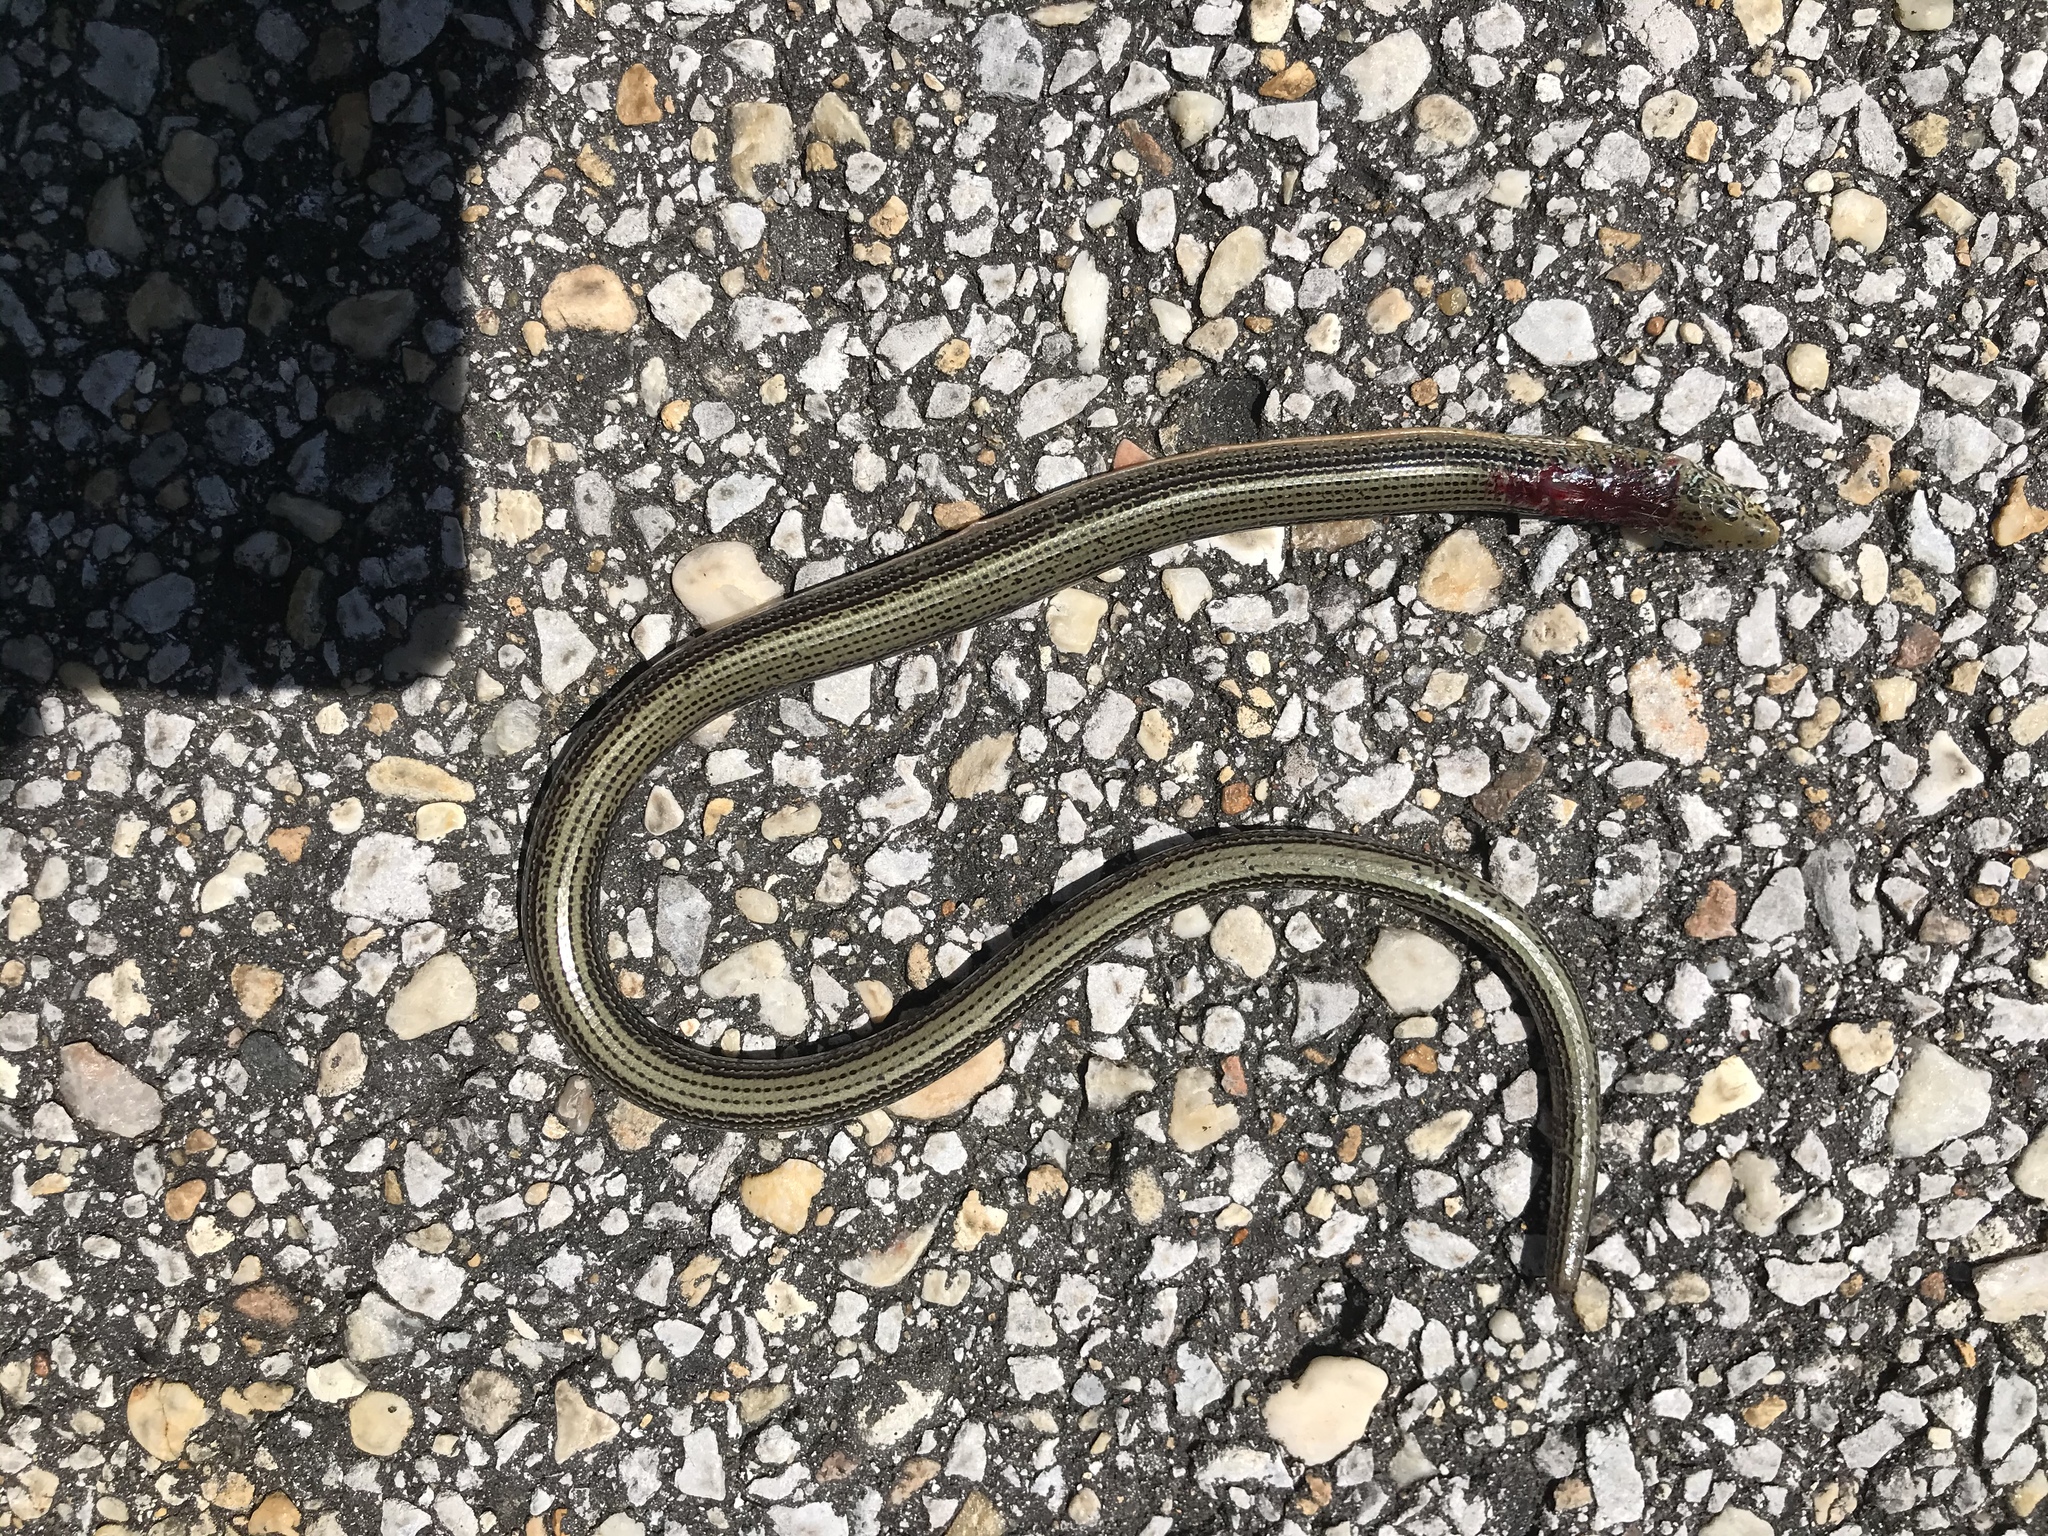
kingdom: Animalia
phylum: Chordata
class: Squamata
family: Anguidae
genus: Ophisaurus
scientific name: Ophisaurus ventralis
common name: Eastern glass lizard
